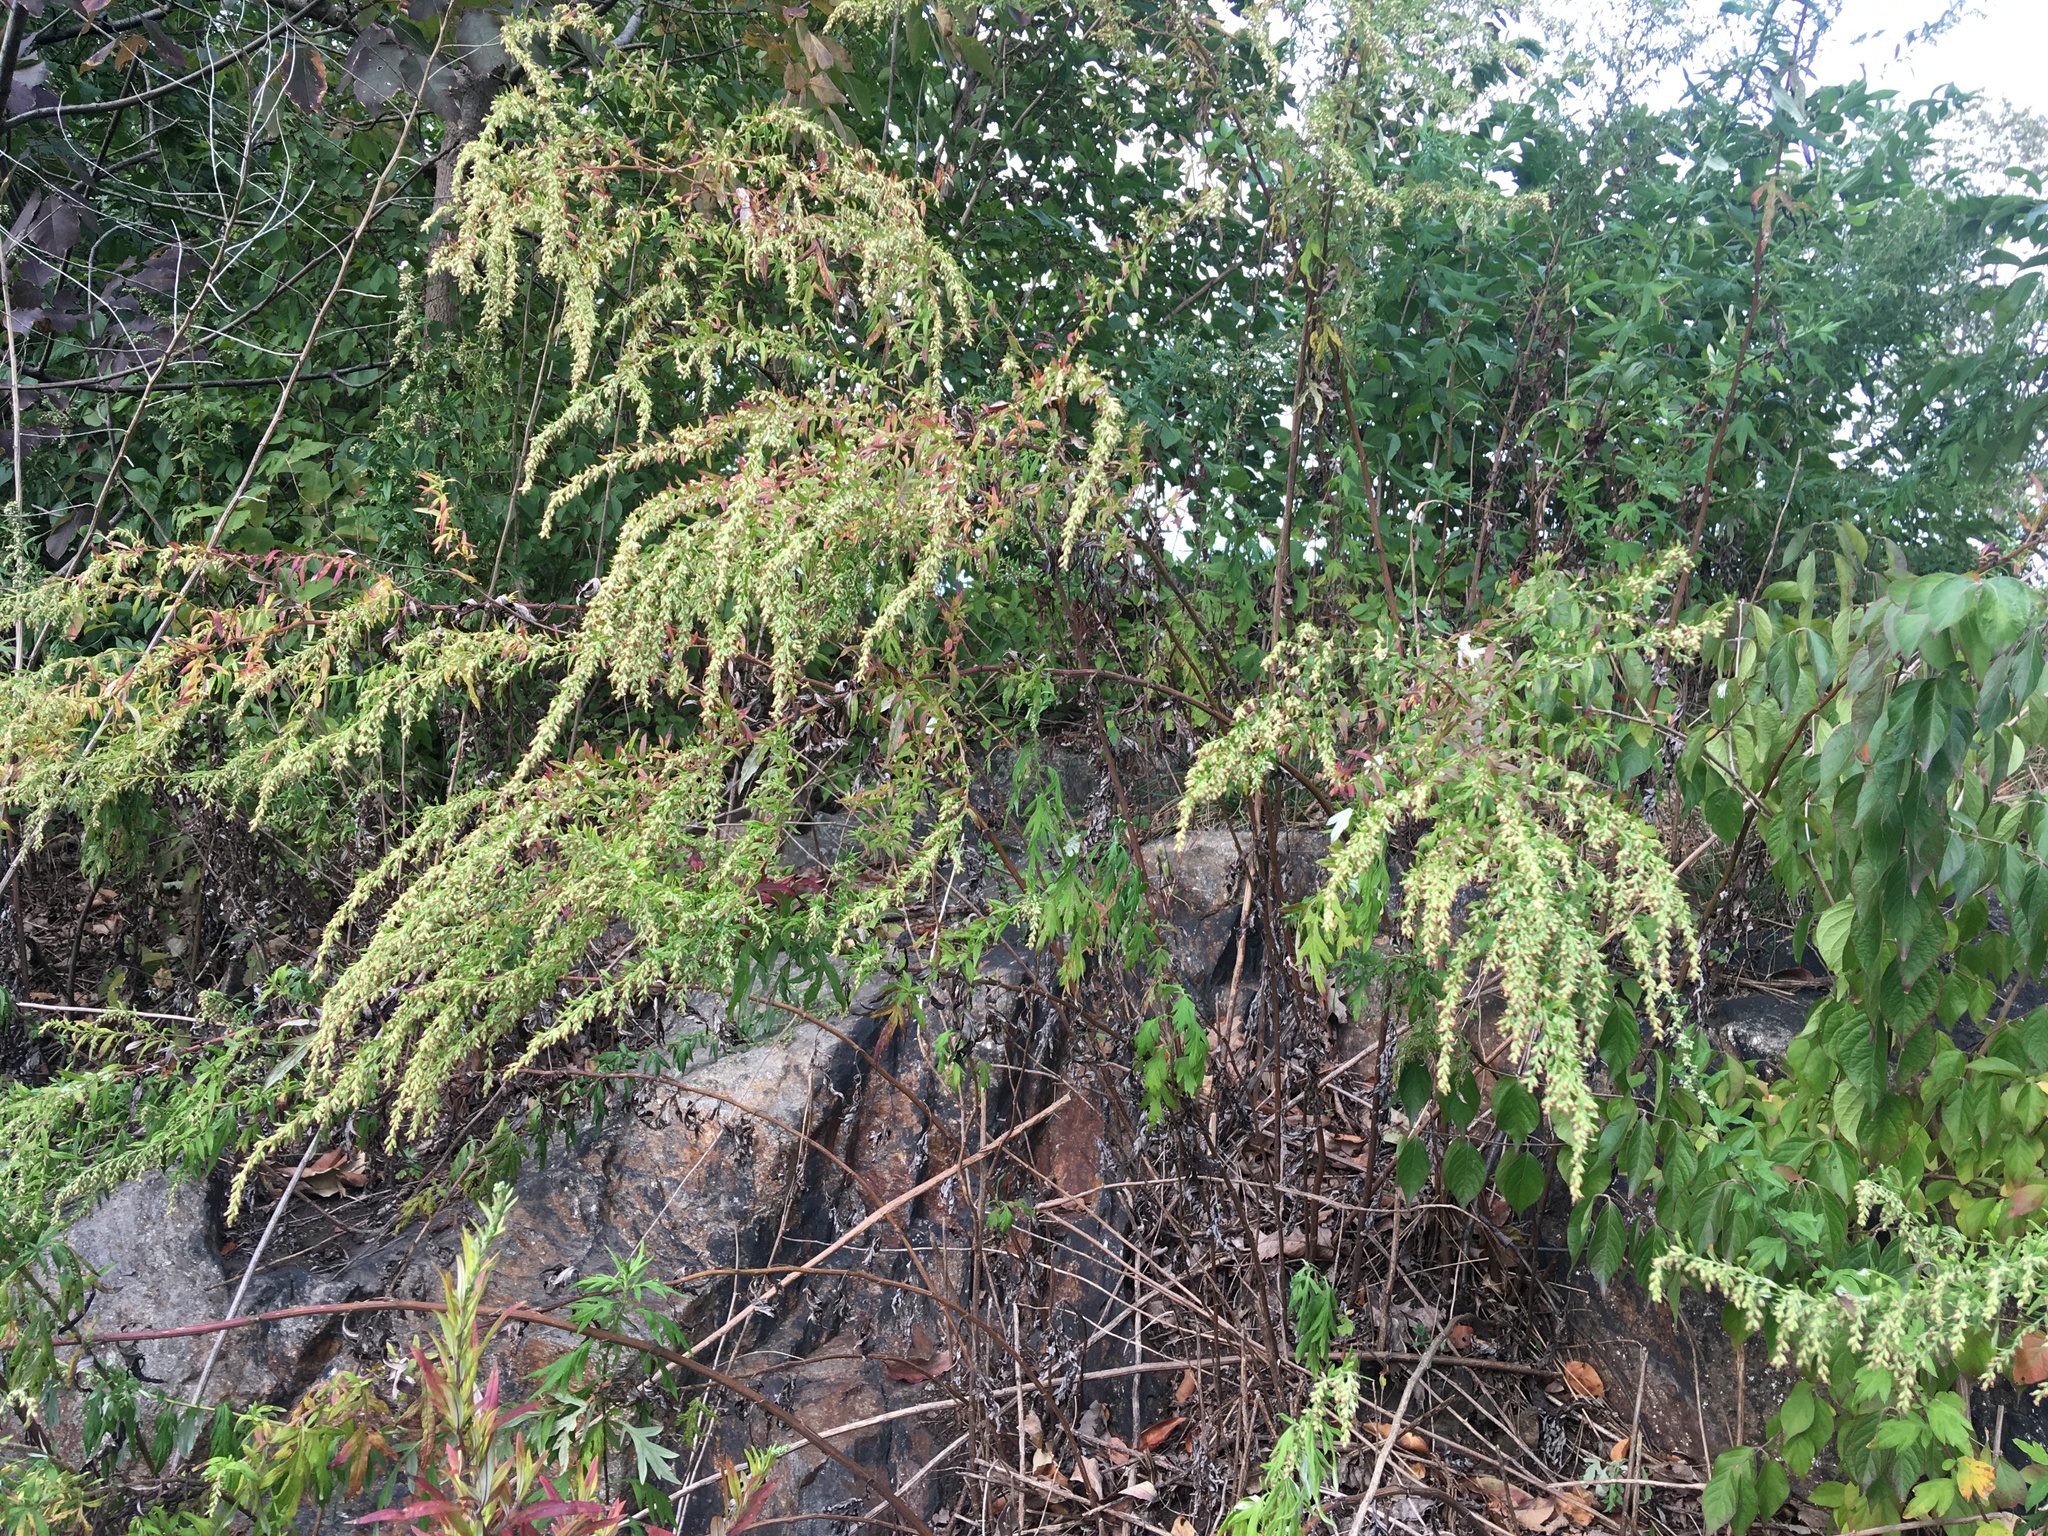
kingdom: Plantae
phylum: Tracheophyta
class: Magnoliopsida
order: Asterales
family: Asteraceae
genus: Artemisia
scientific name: Artemisia vulgaris
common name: Mugwort
